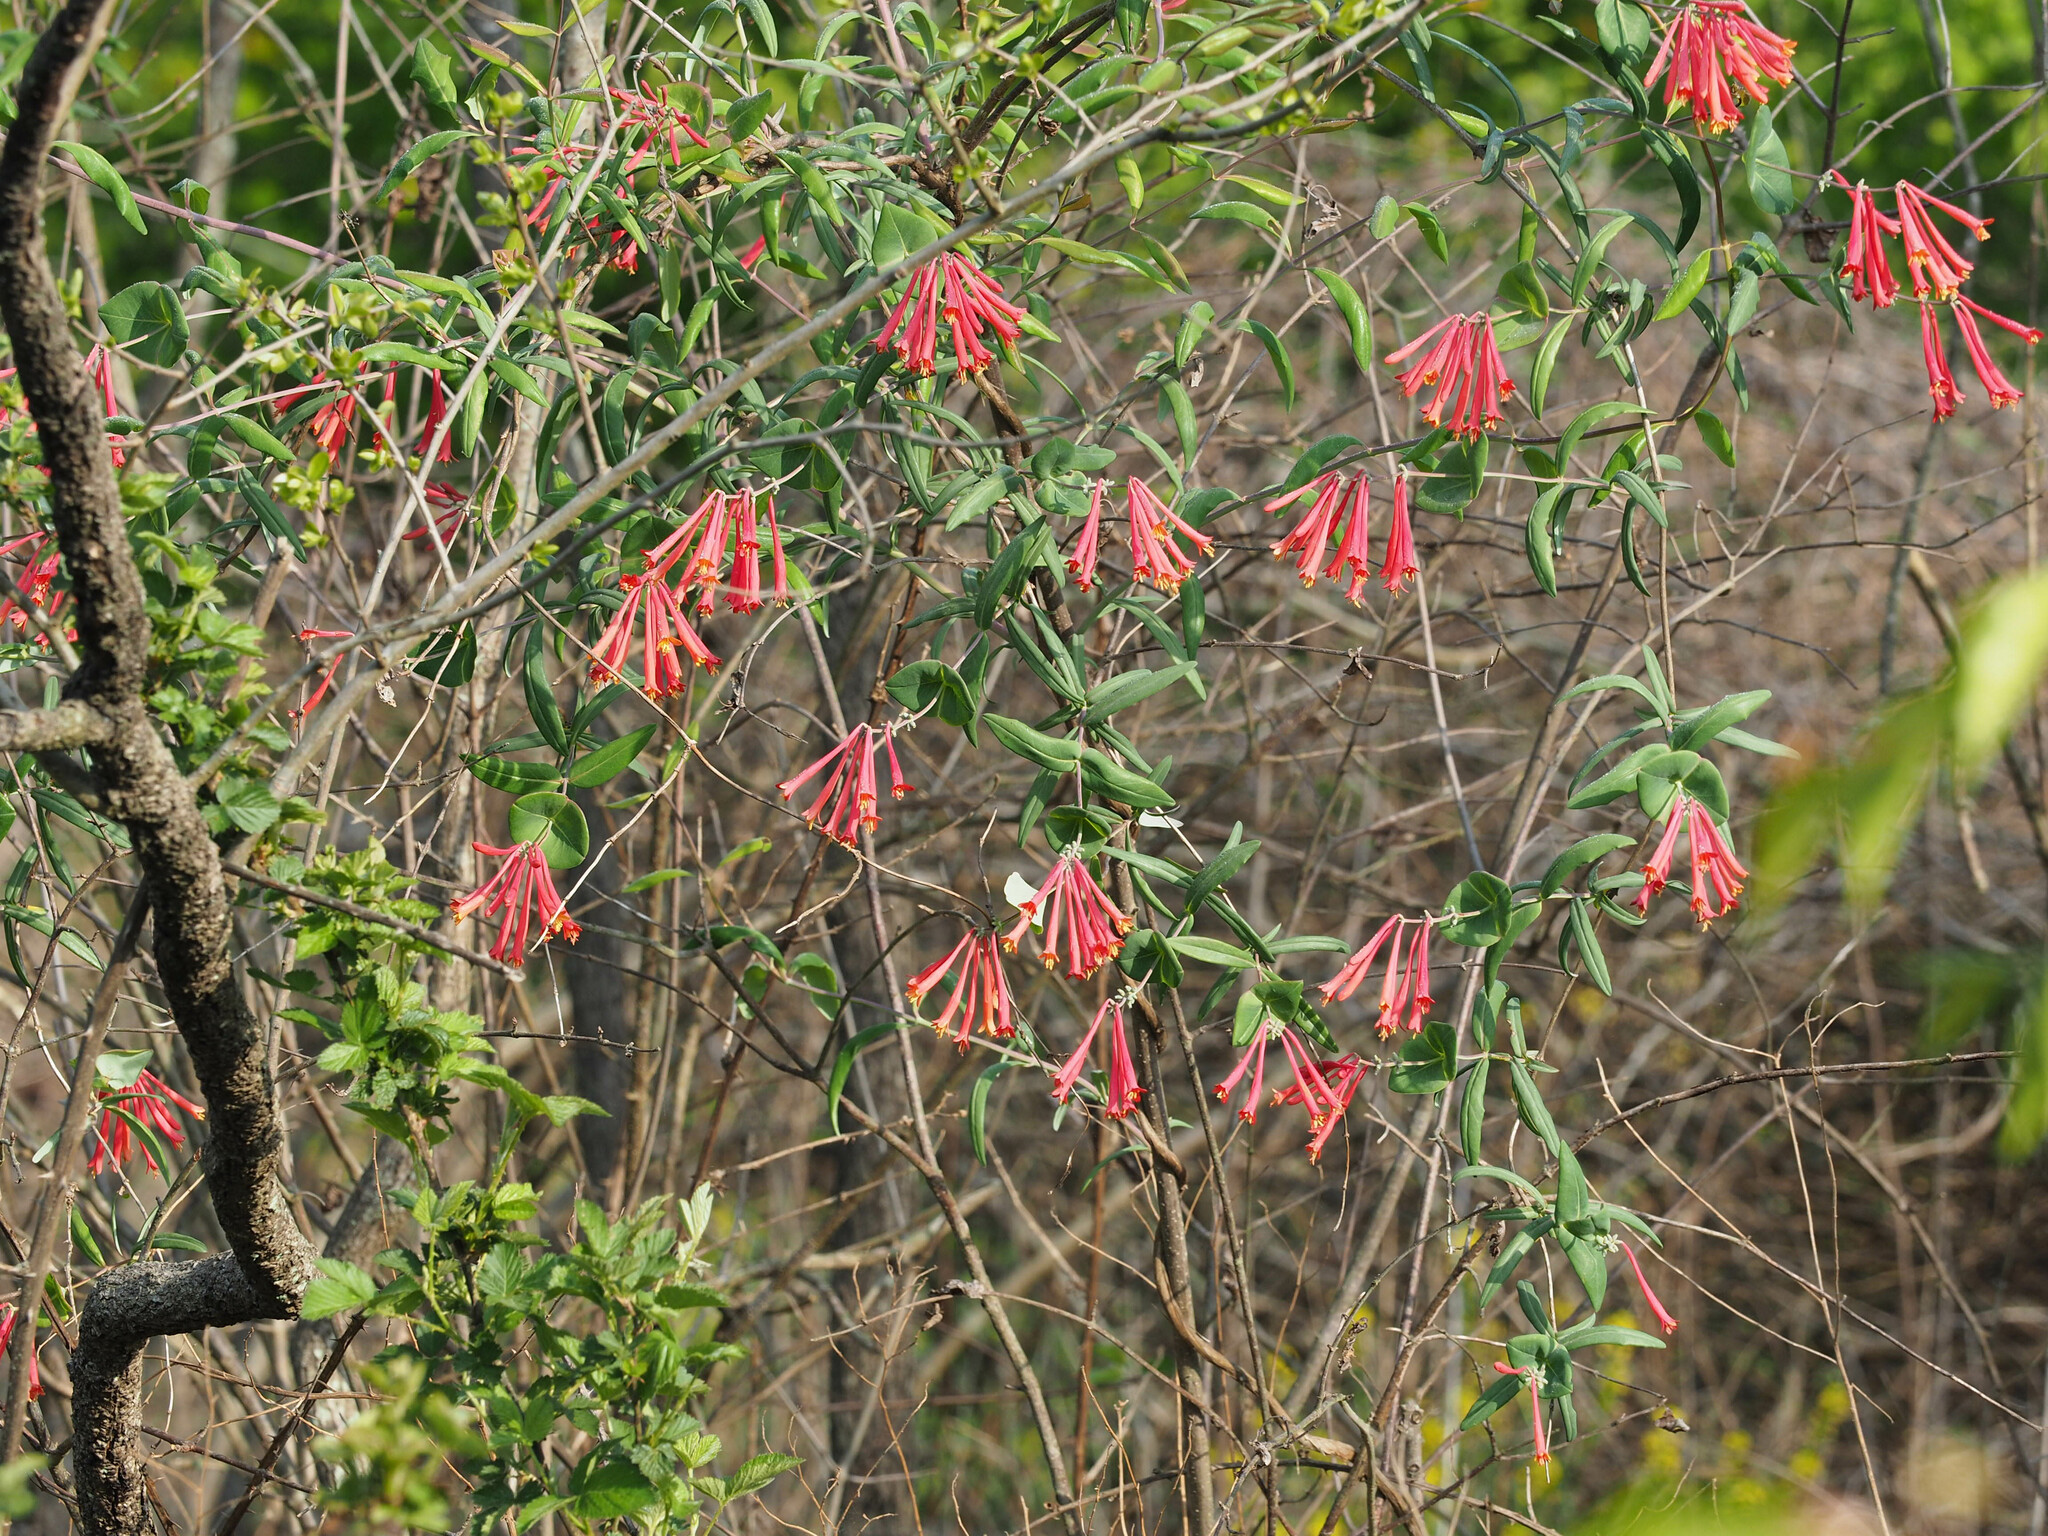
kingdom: Plantae
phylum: Tracheophyta
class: Magnoliopsida
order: Dipsacales
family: Caprifoliaceae
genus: Lonicera
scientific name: Lonicera sempervirens
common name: Coral honeysuckle
